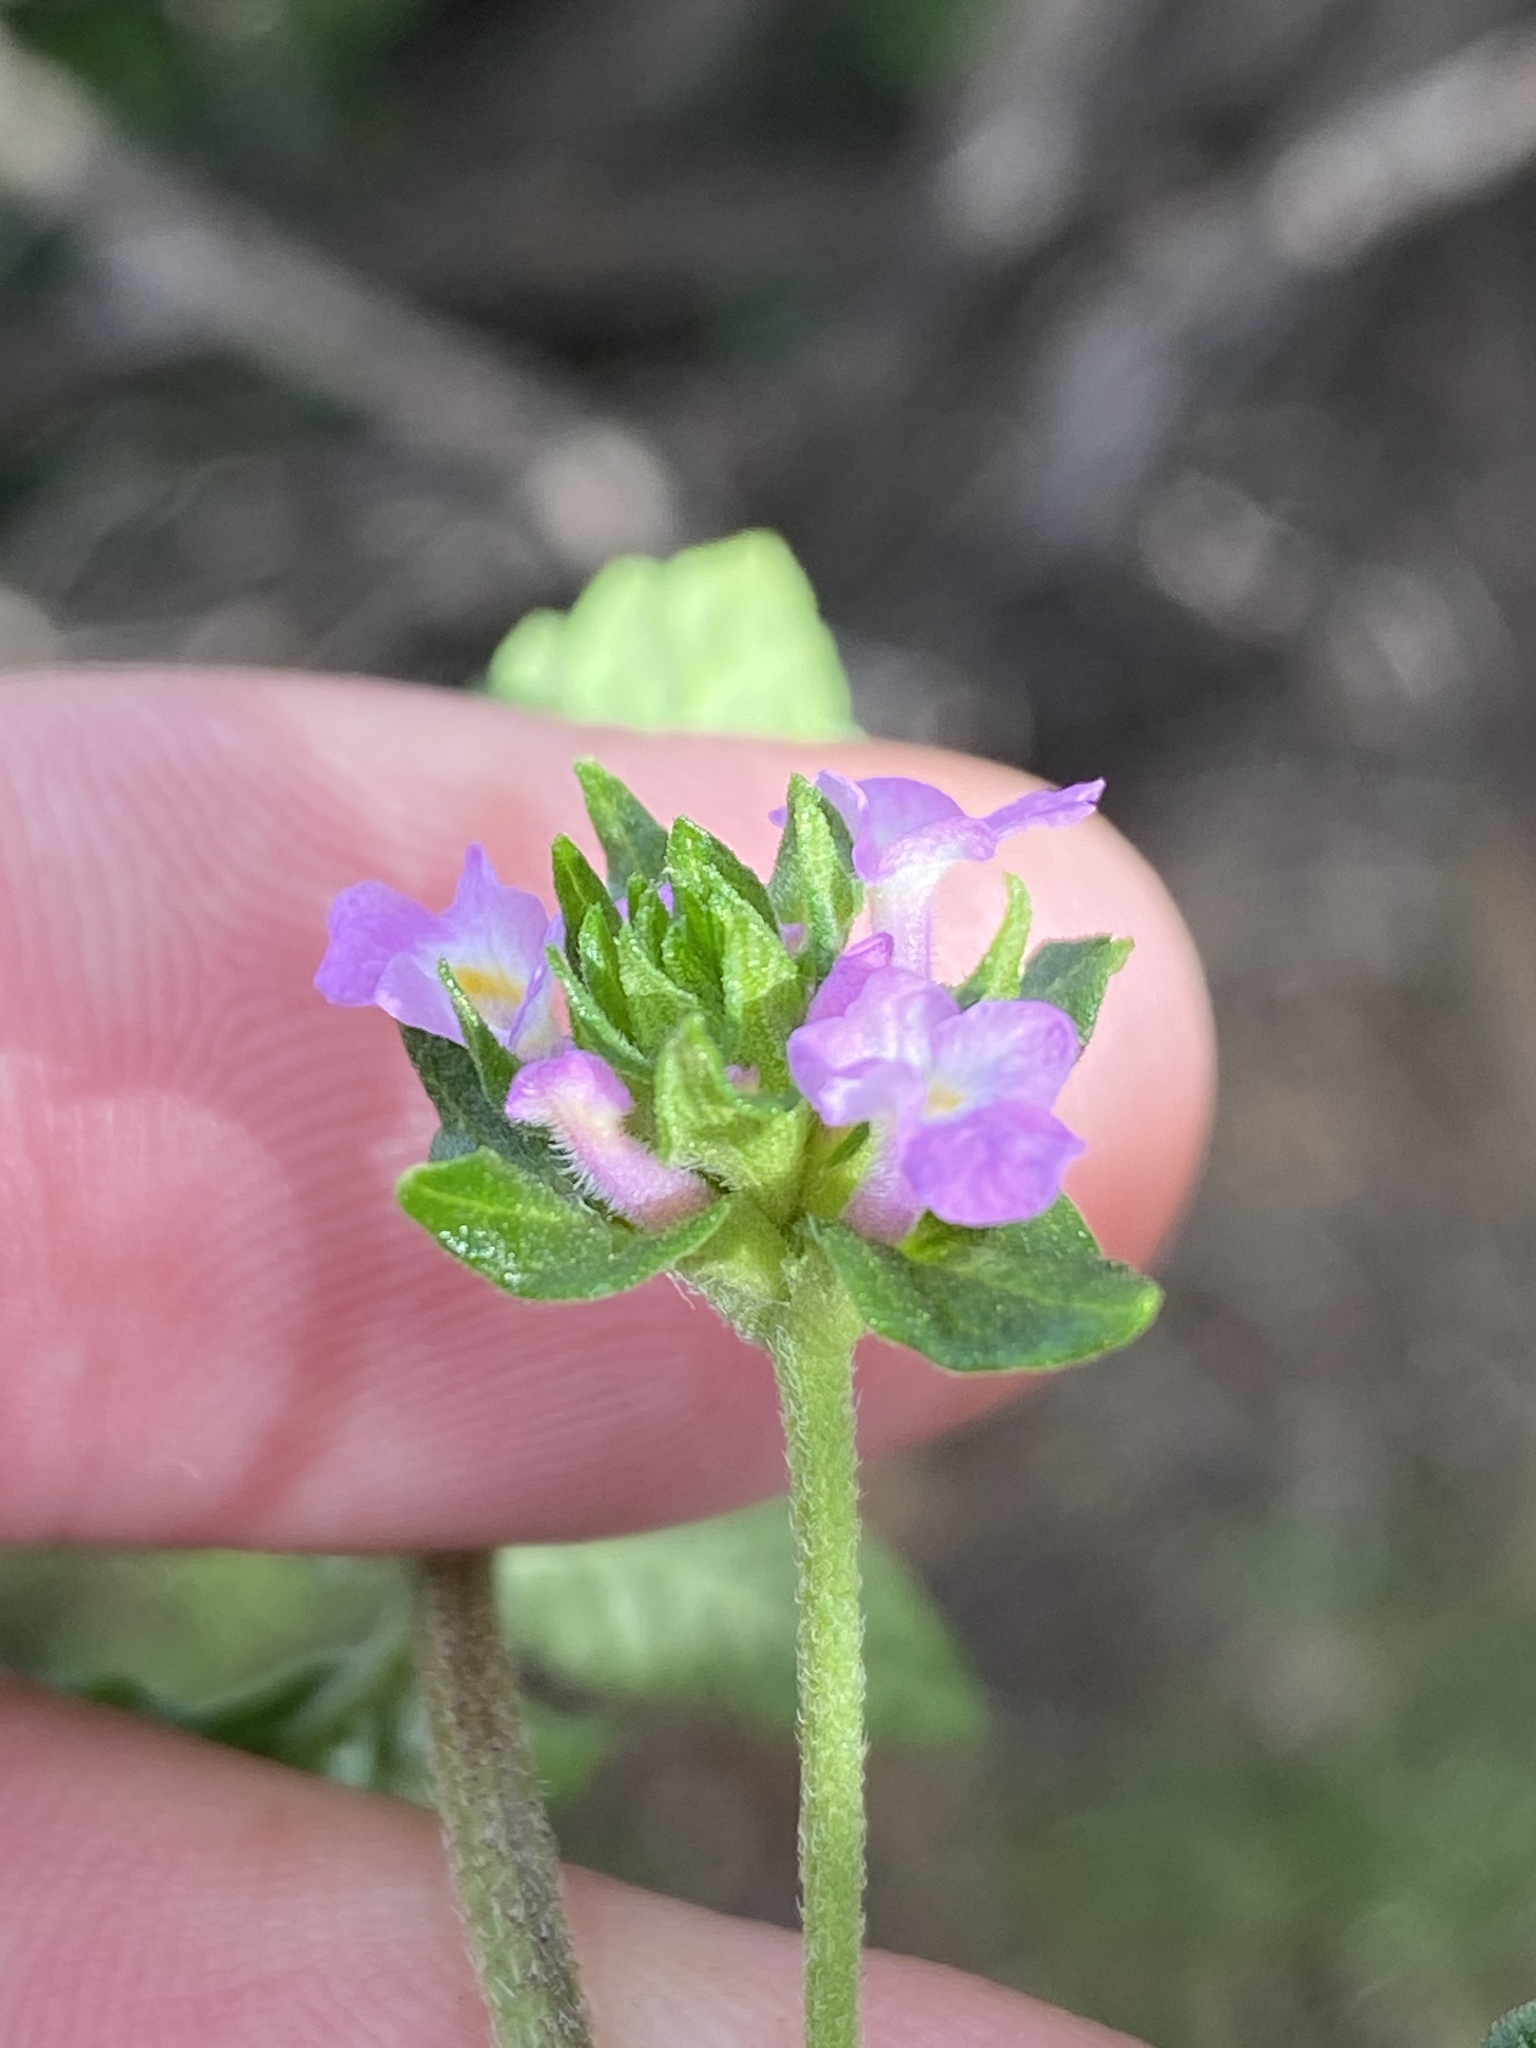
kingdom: Plantae
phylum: Tracheophyta
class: Magnoliopsida
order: Lamiales
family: Verbenaceae
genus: Lantana
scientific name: Lantana rugosa
